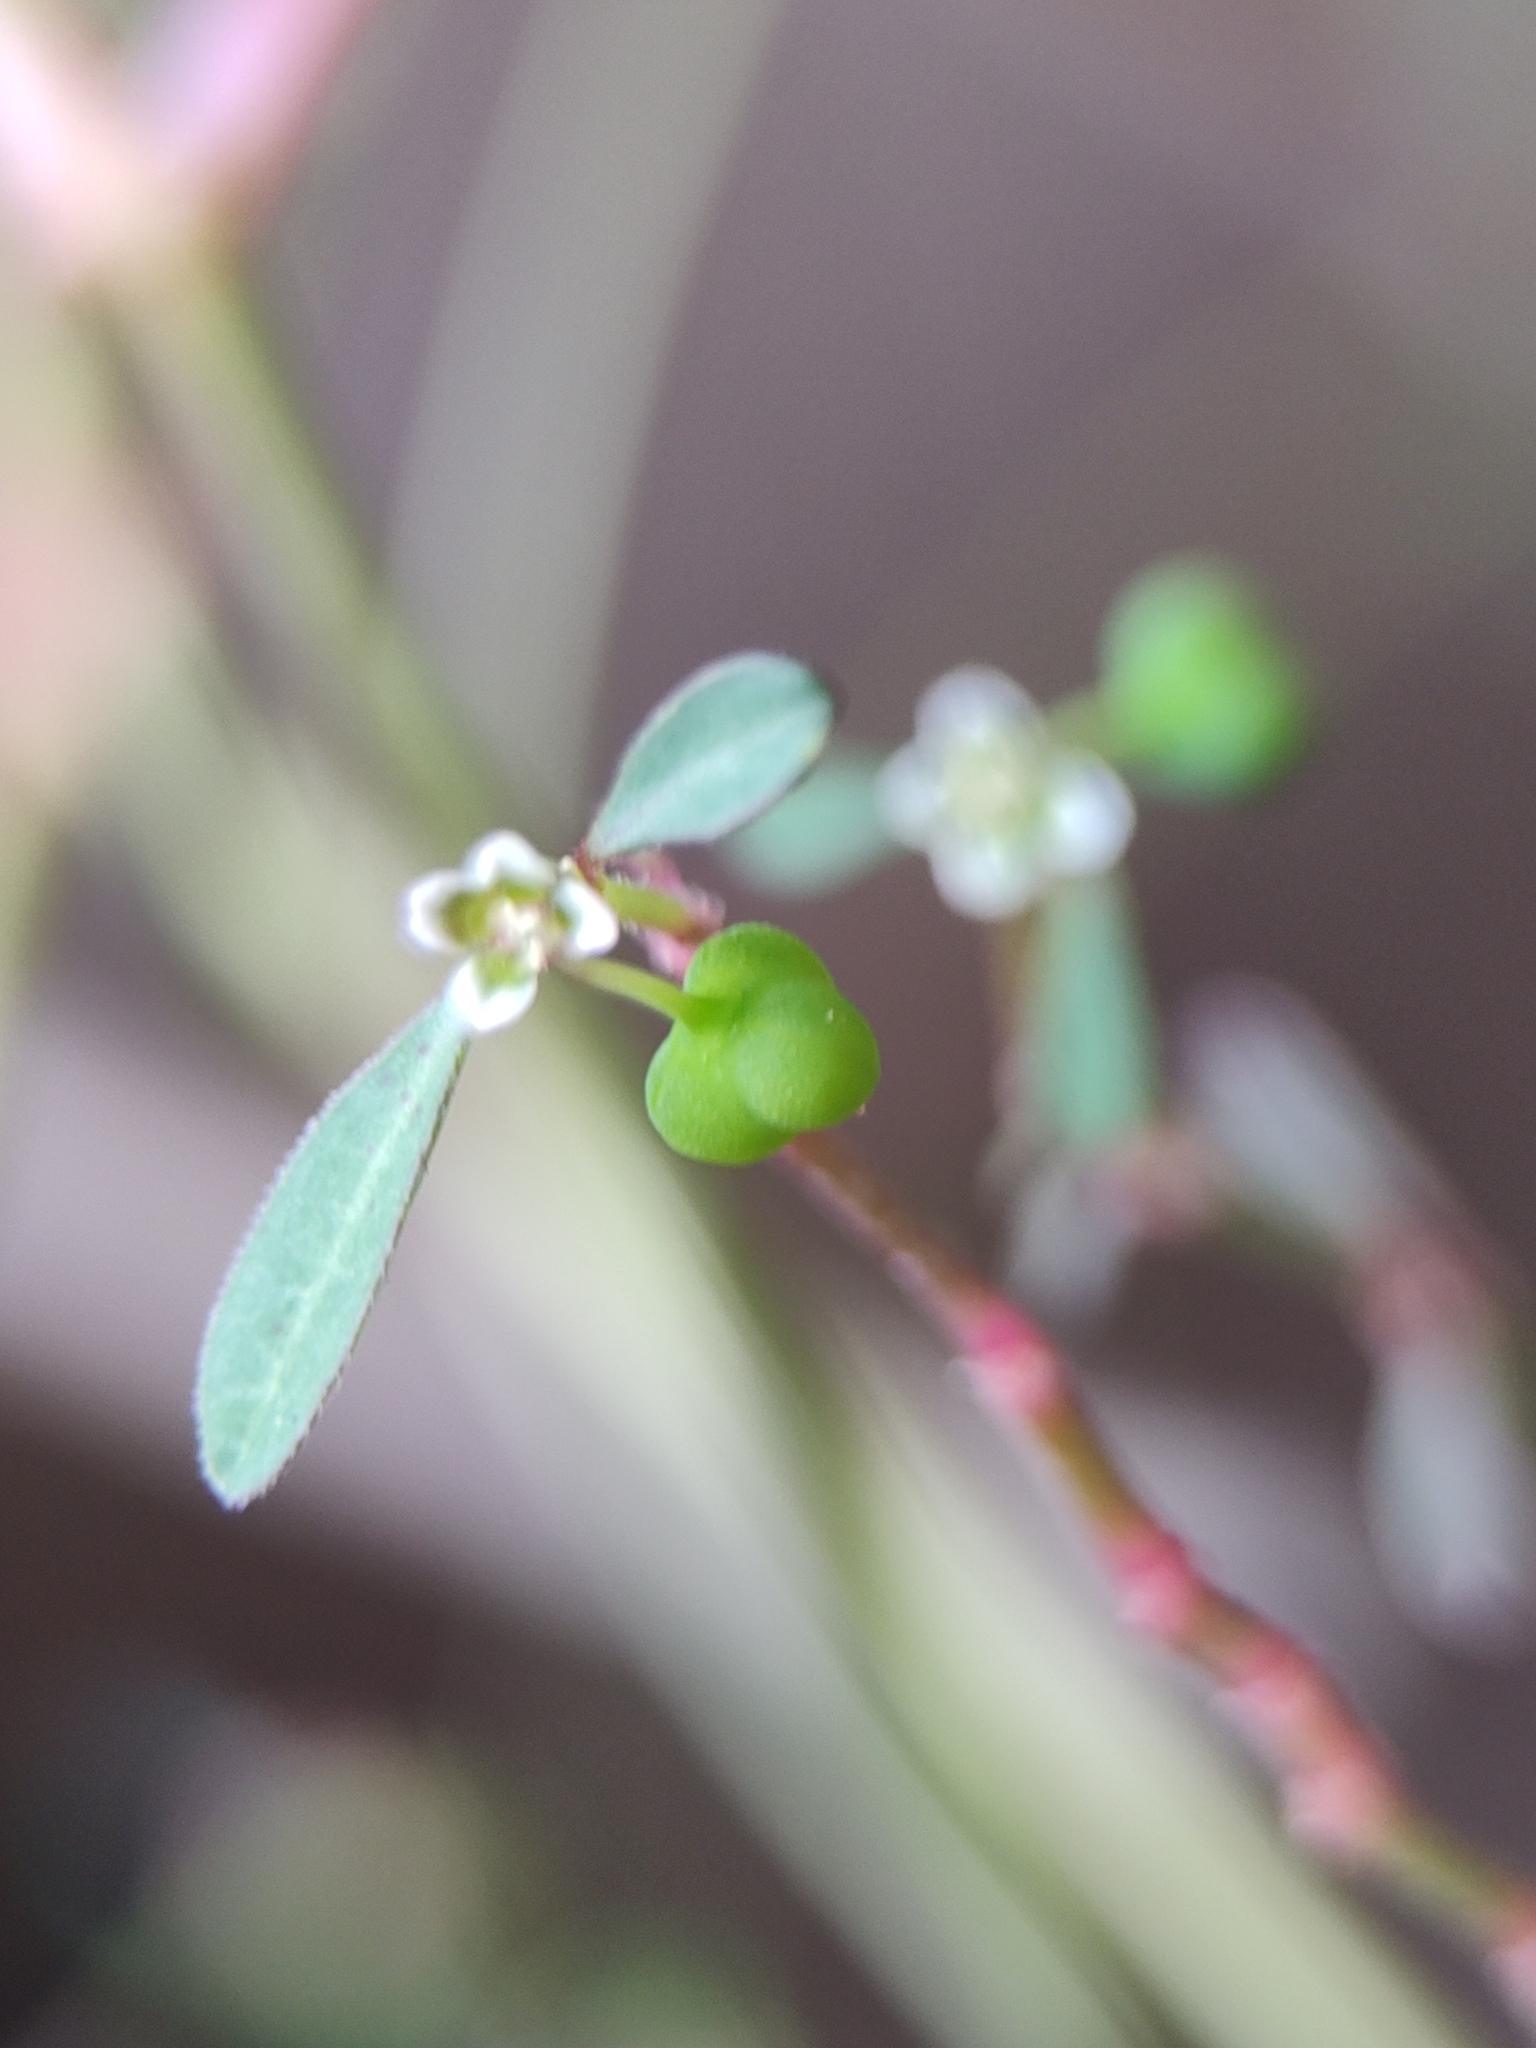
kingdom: Plantae
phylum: Tracheophyta
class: Magnoliopsida
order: Malpighiales
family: Euphorbiaceae
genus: Euphorbia
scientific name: Euphorbia graminea
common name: Grassleaf spurge
